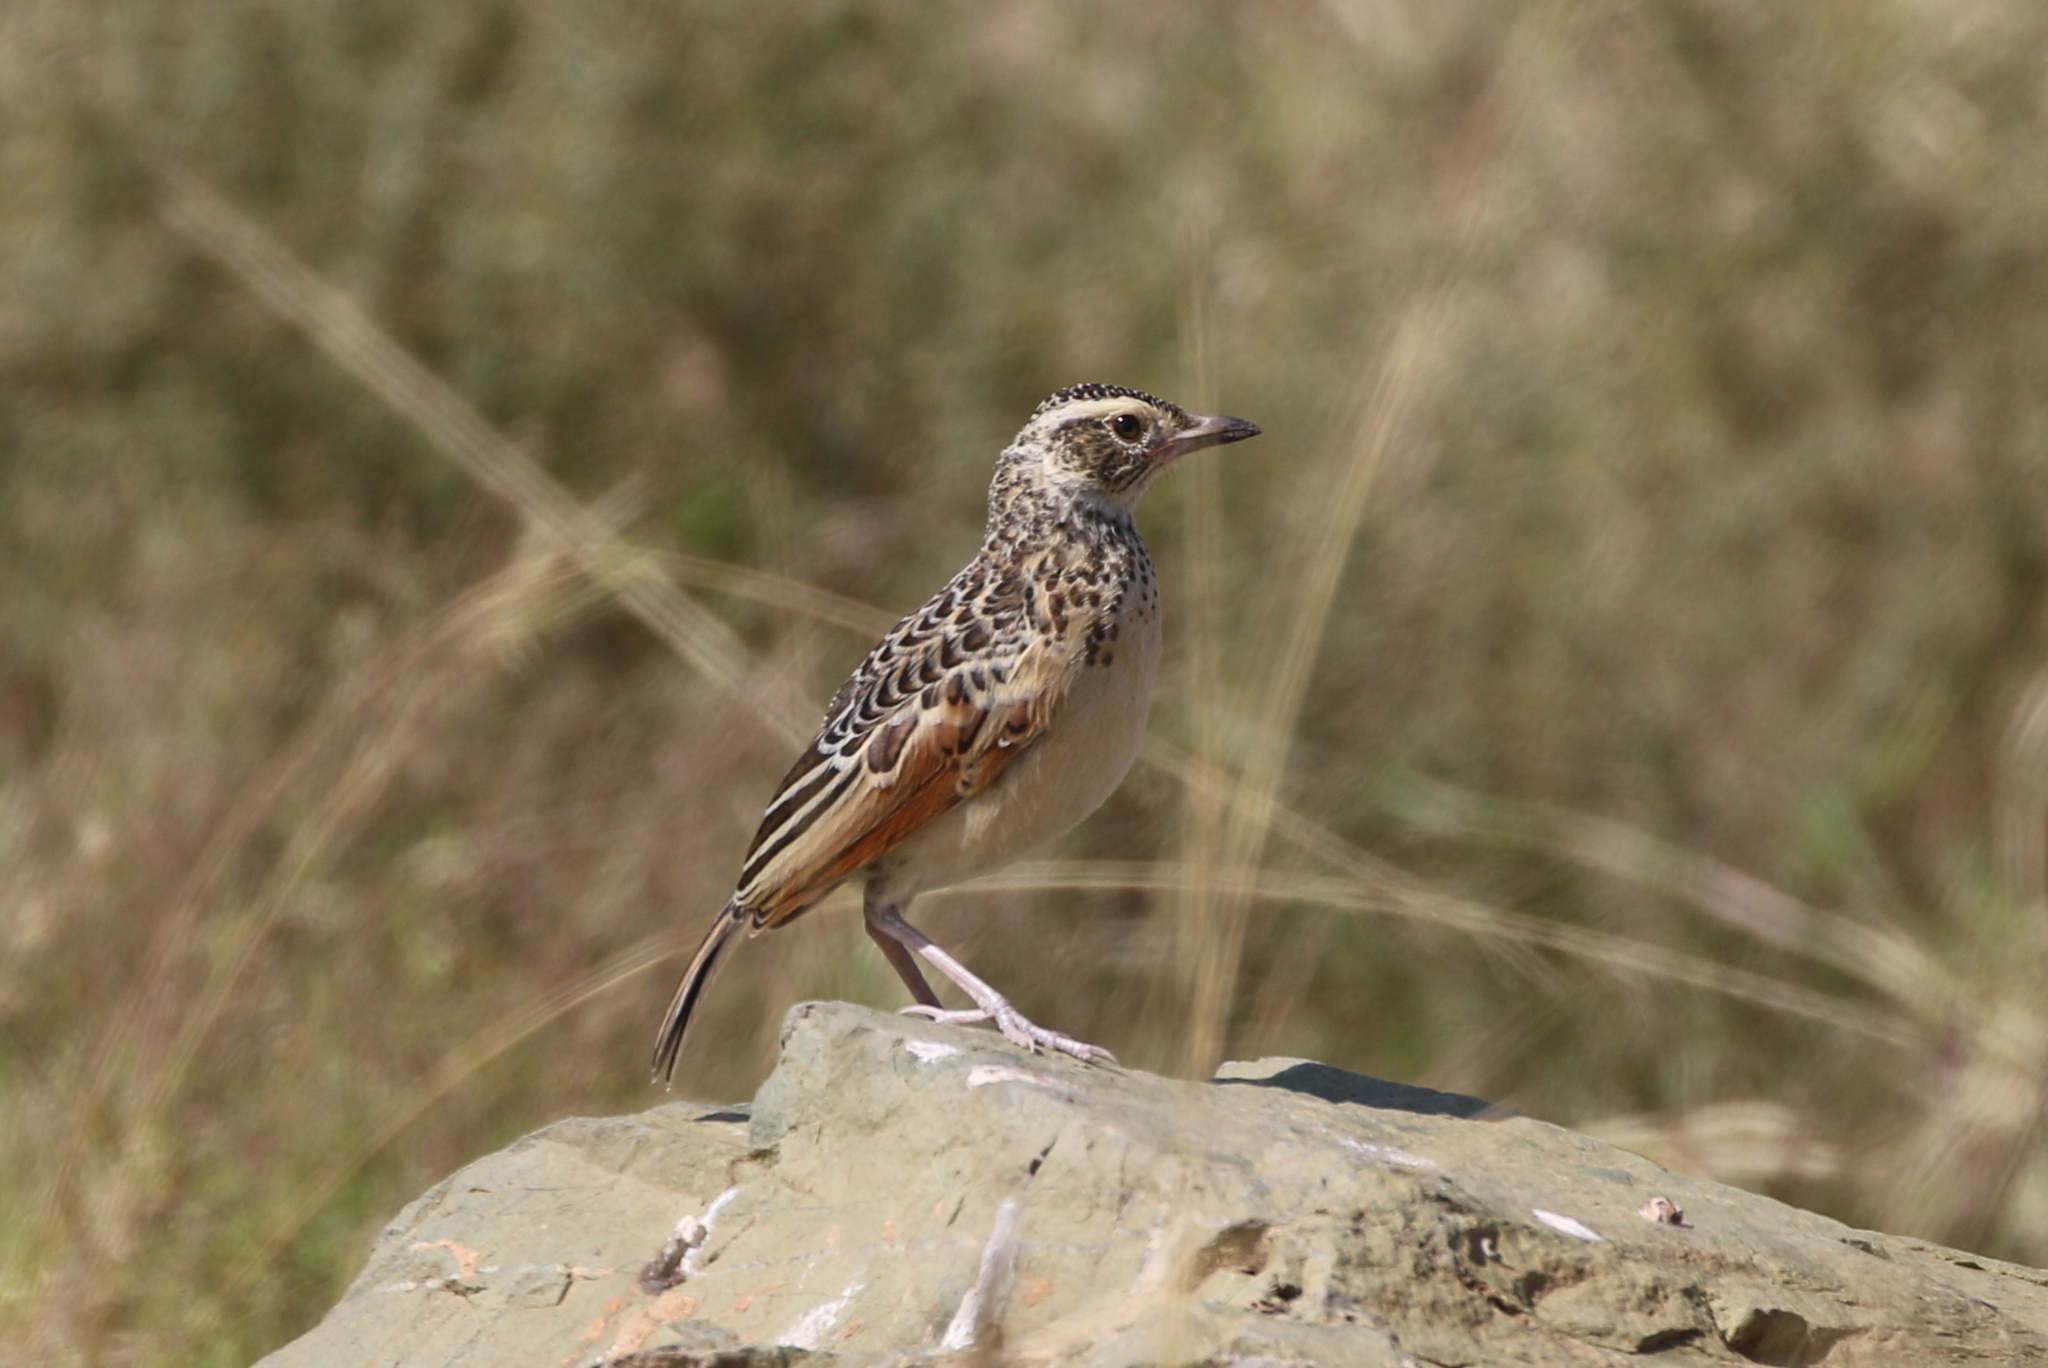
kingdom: Animalia
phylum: Chordata
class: Aves
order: Passeriformes
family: Alaudidae
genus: Mirafra
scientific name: Mirafra africana
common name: Rufous-naped lark
